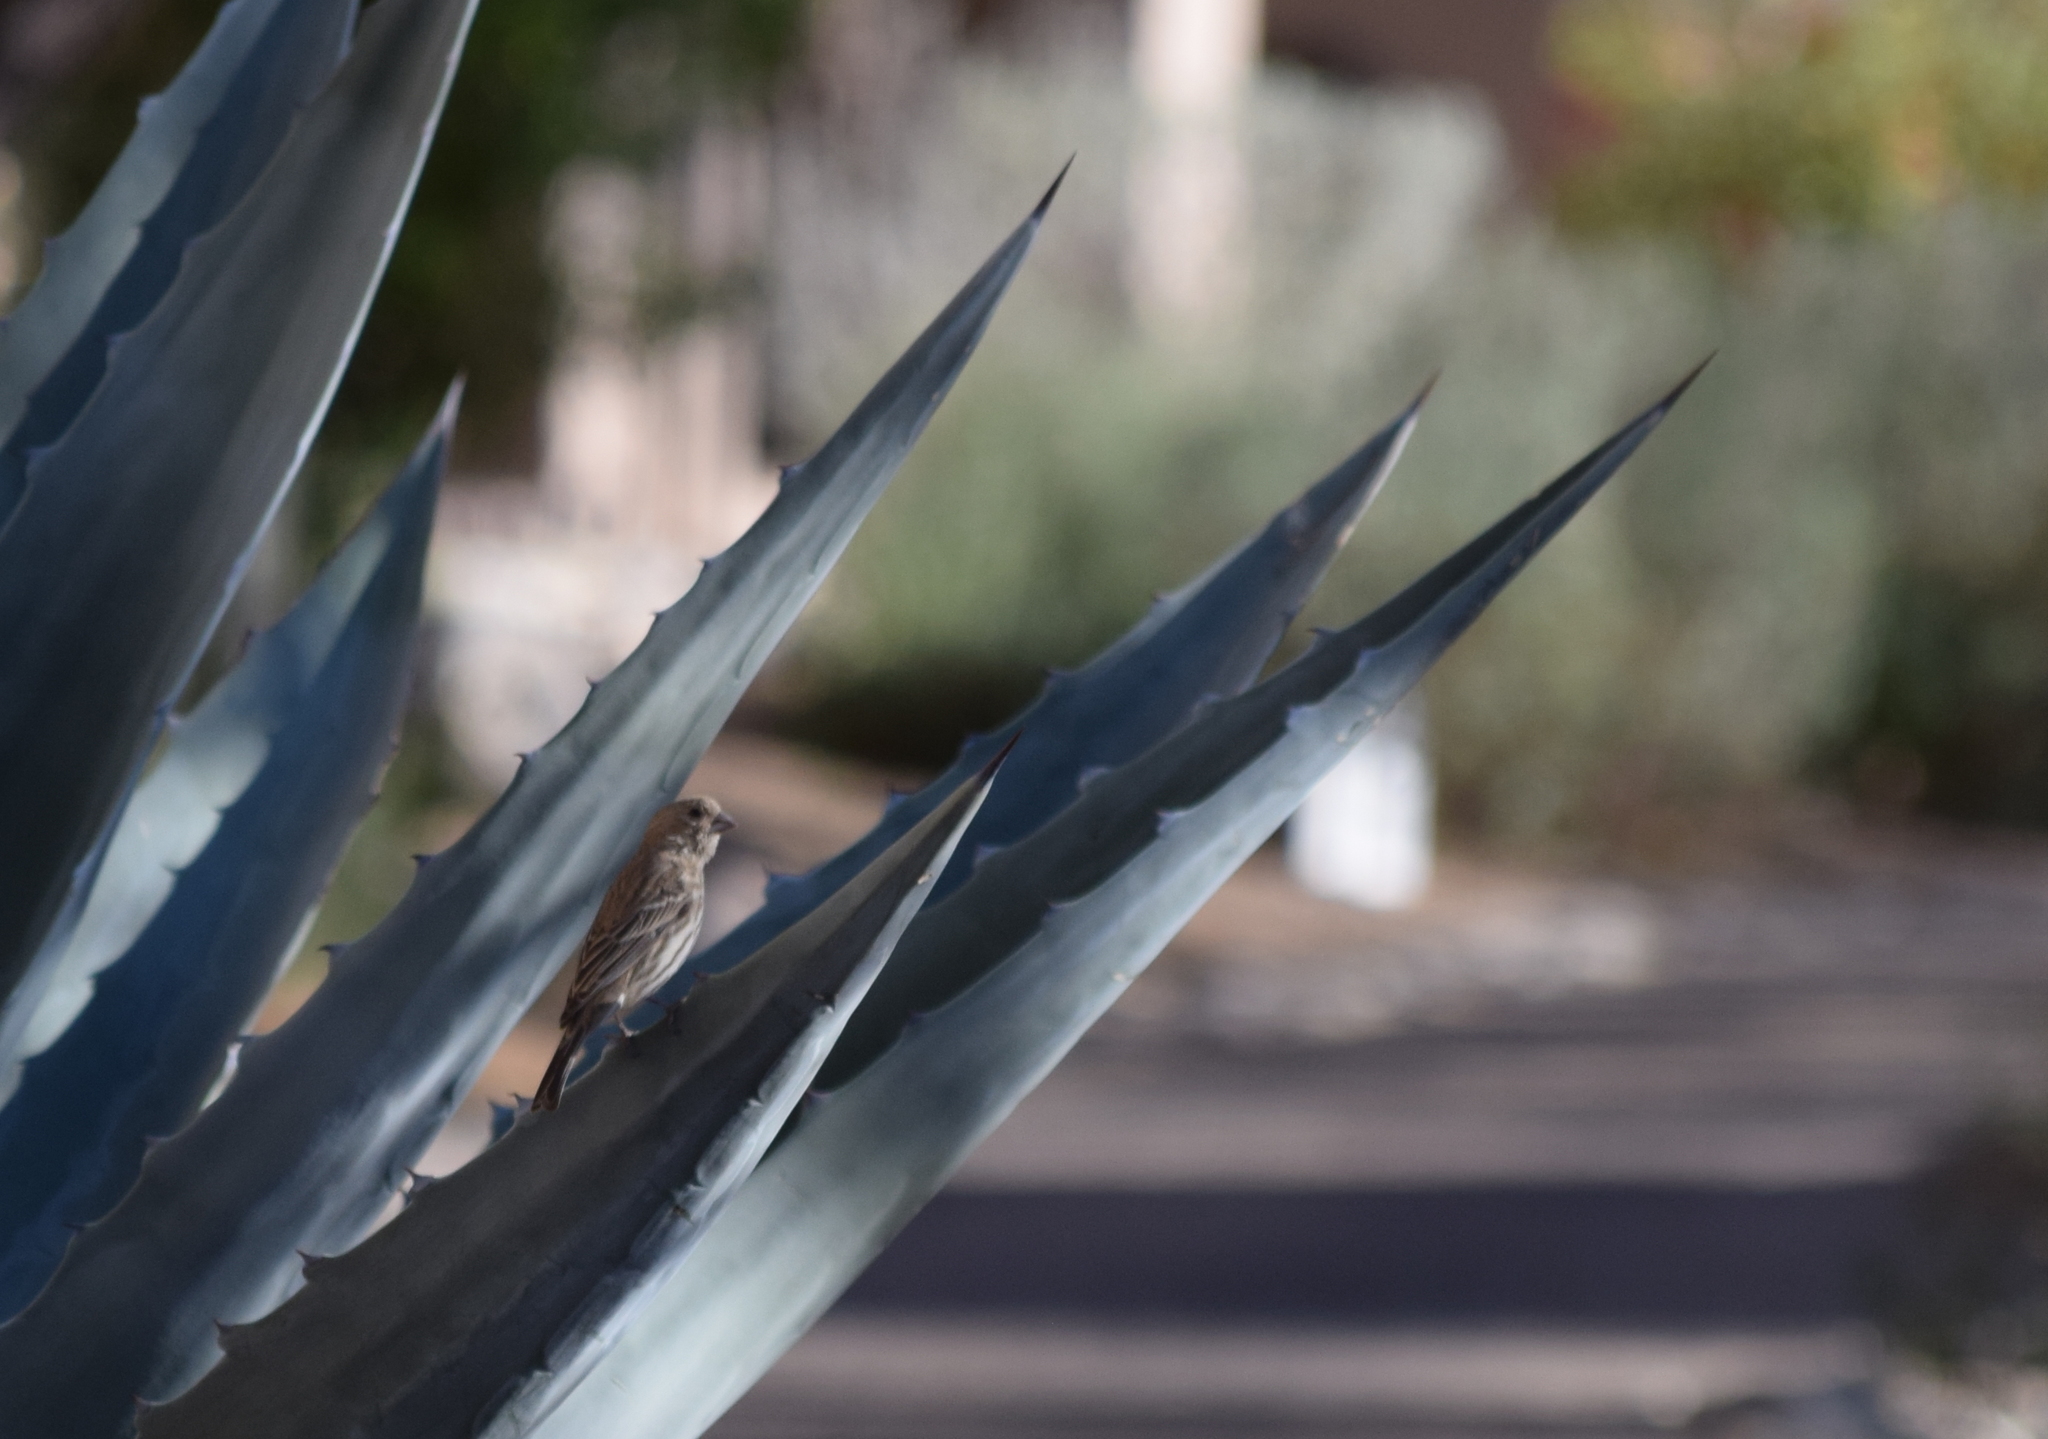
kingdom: Animalia
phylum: Chordata
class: Aves
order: Passeriformes
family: Fringillidae
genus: Haemorhous
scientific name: Haemorhous mexicanus
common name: House finch
